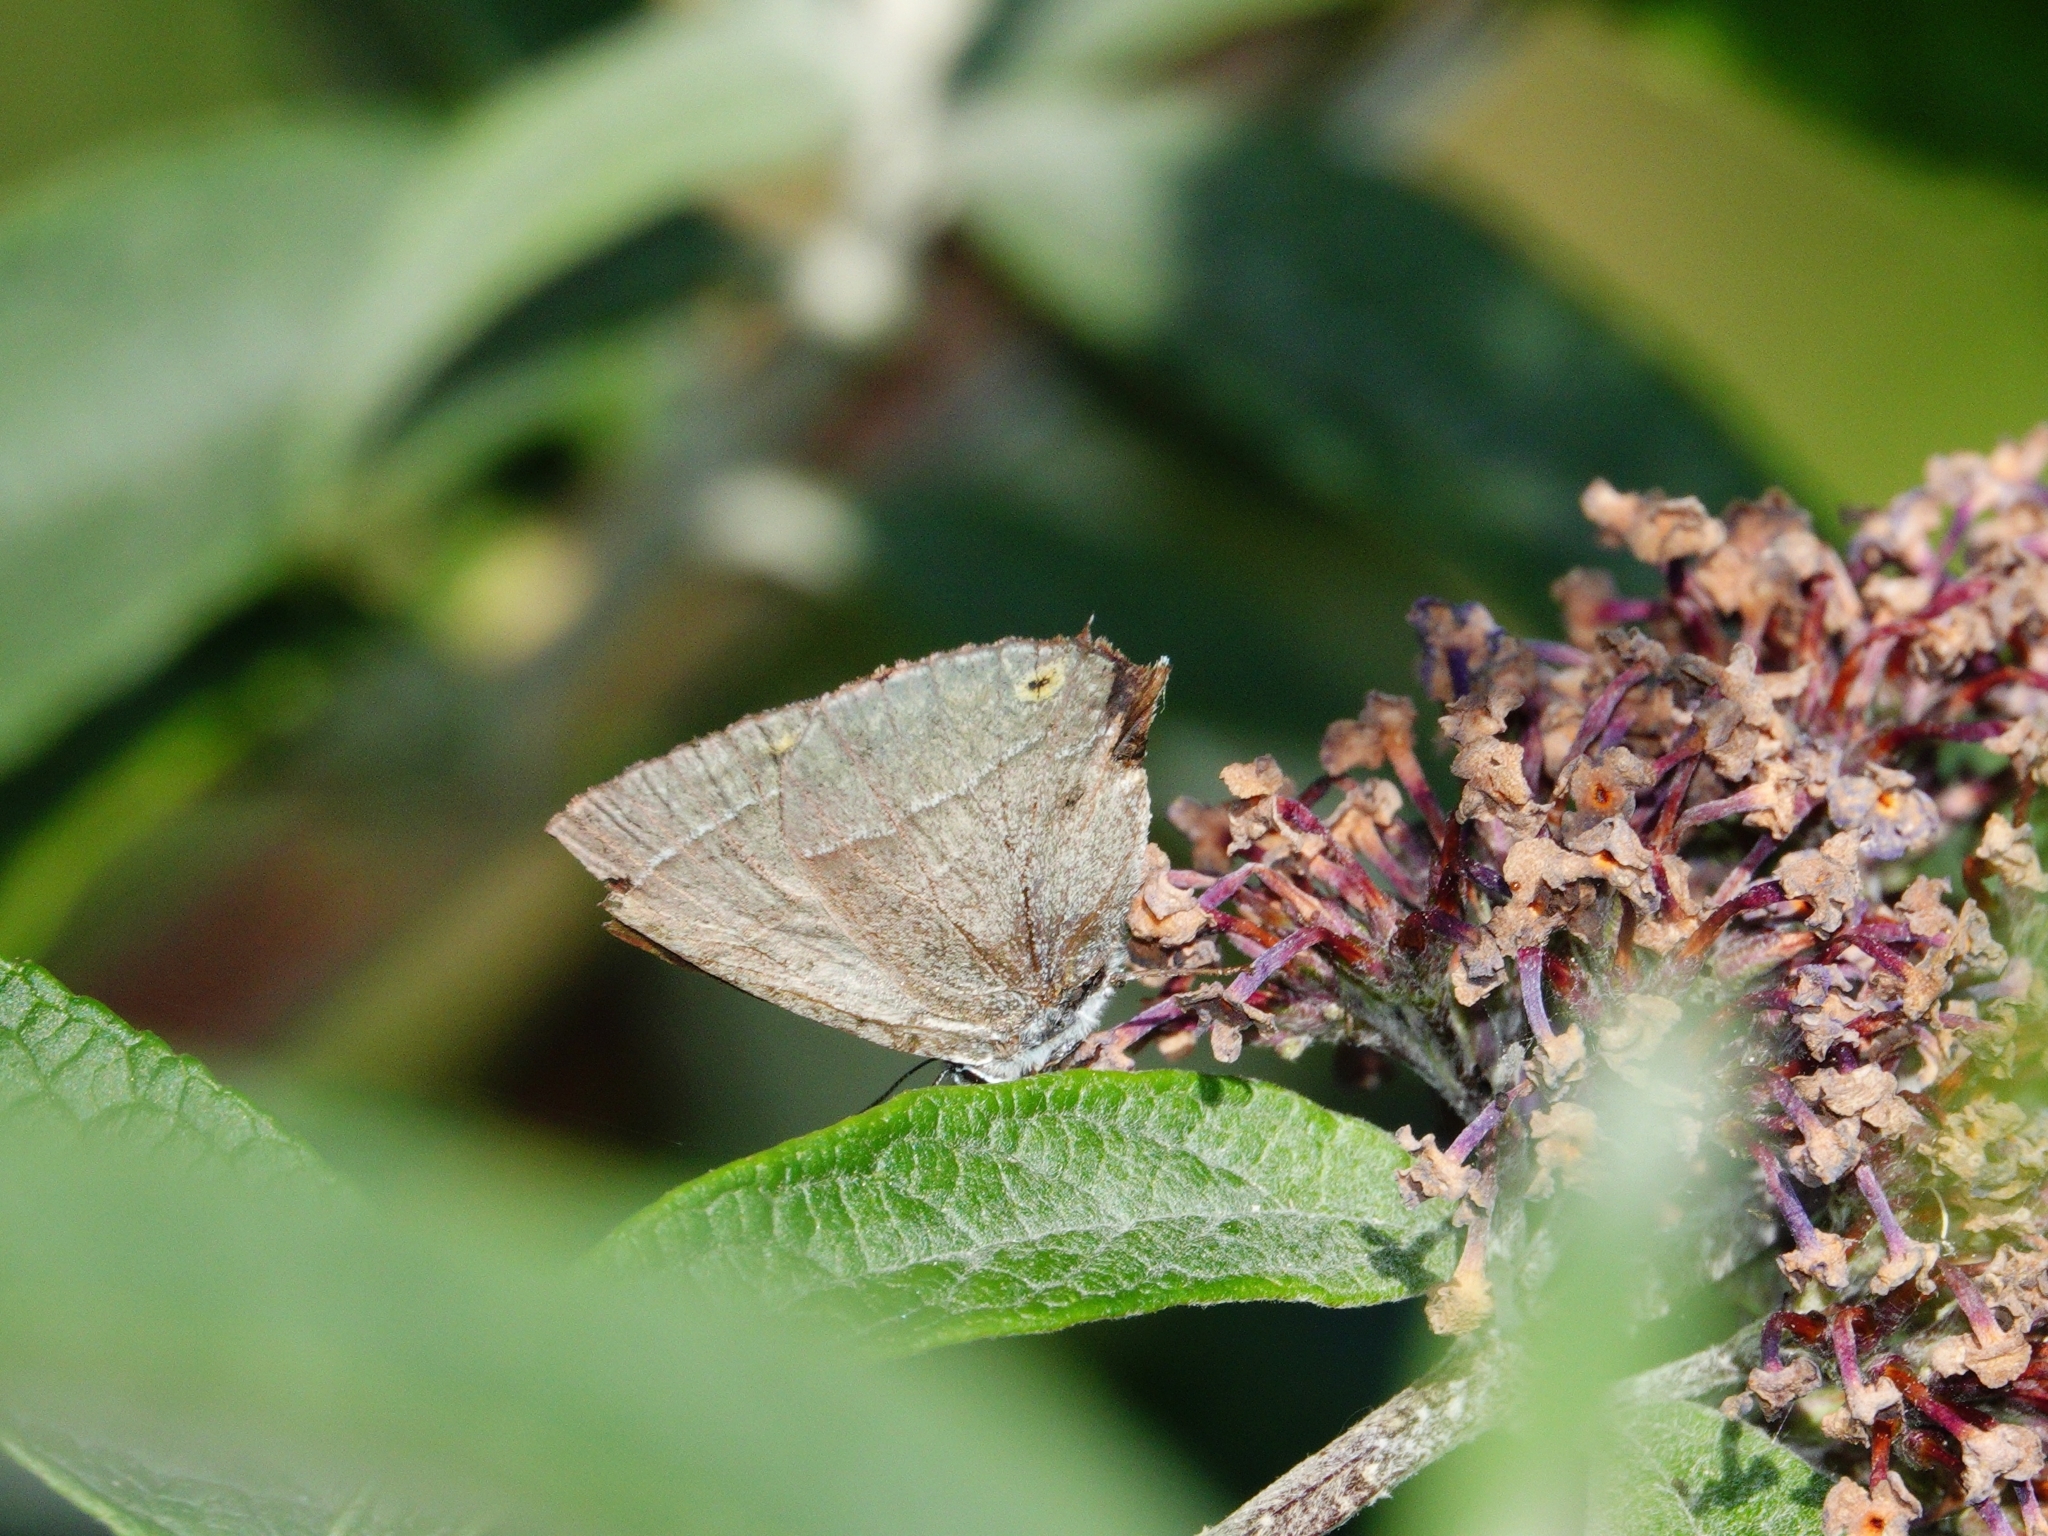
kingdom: Animalia
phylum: Arthropoda
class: Insecta
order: Lepidoptera
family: Lycaenidae
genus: Quercusia
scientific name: Quercusia quercus
